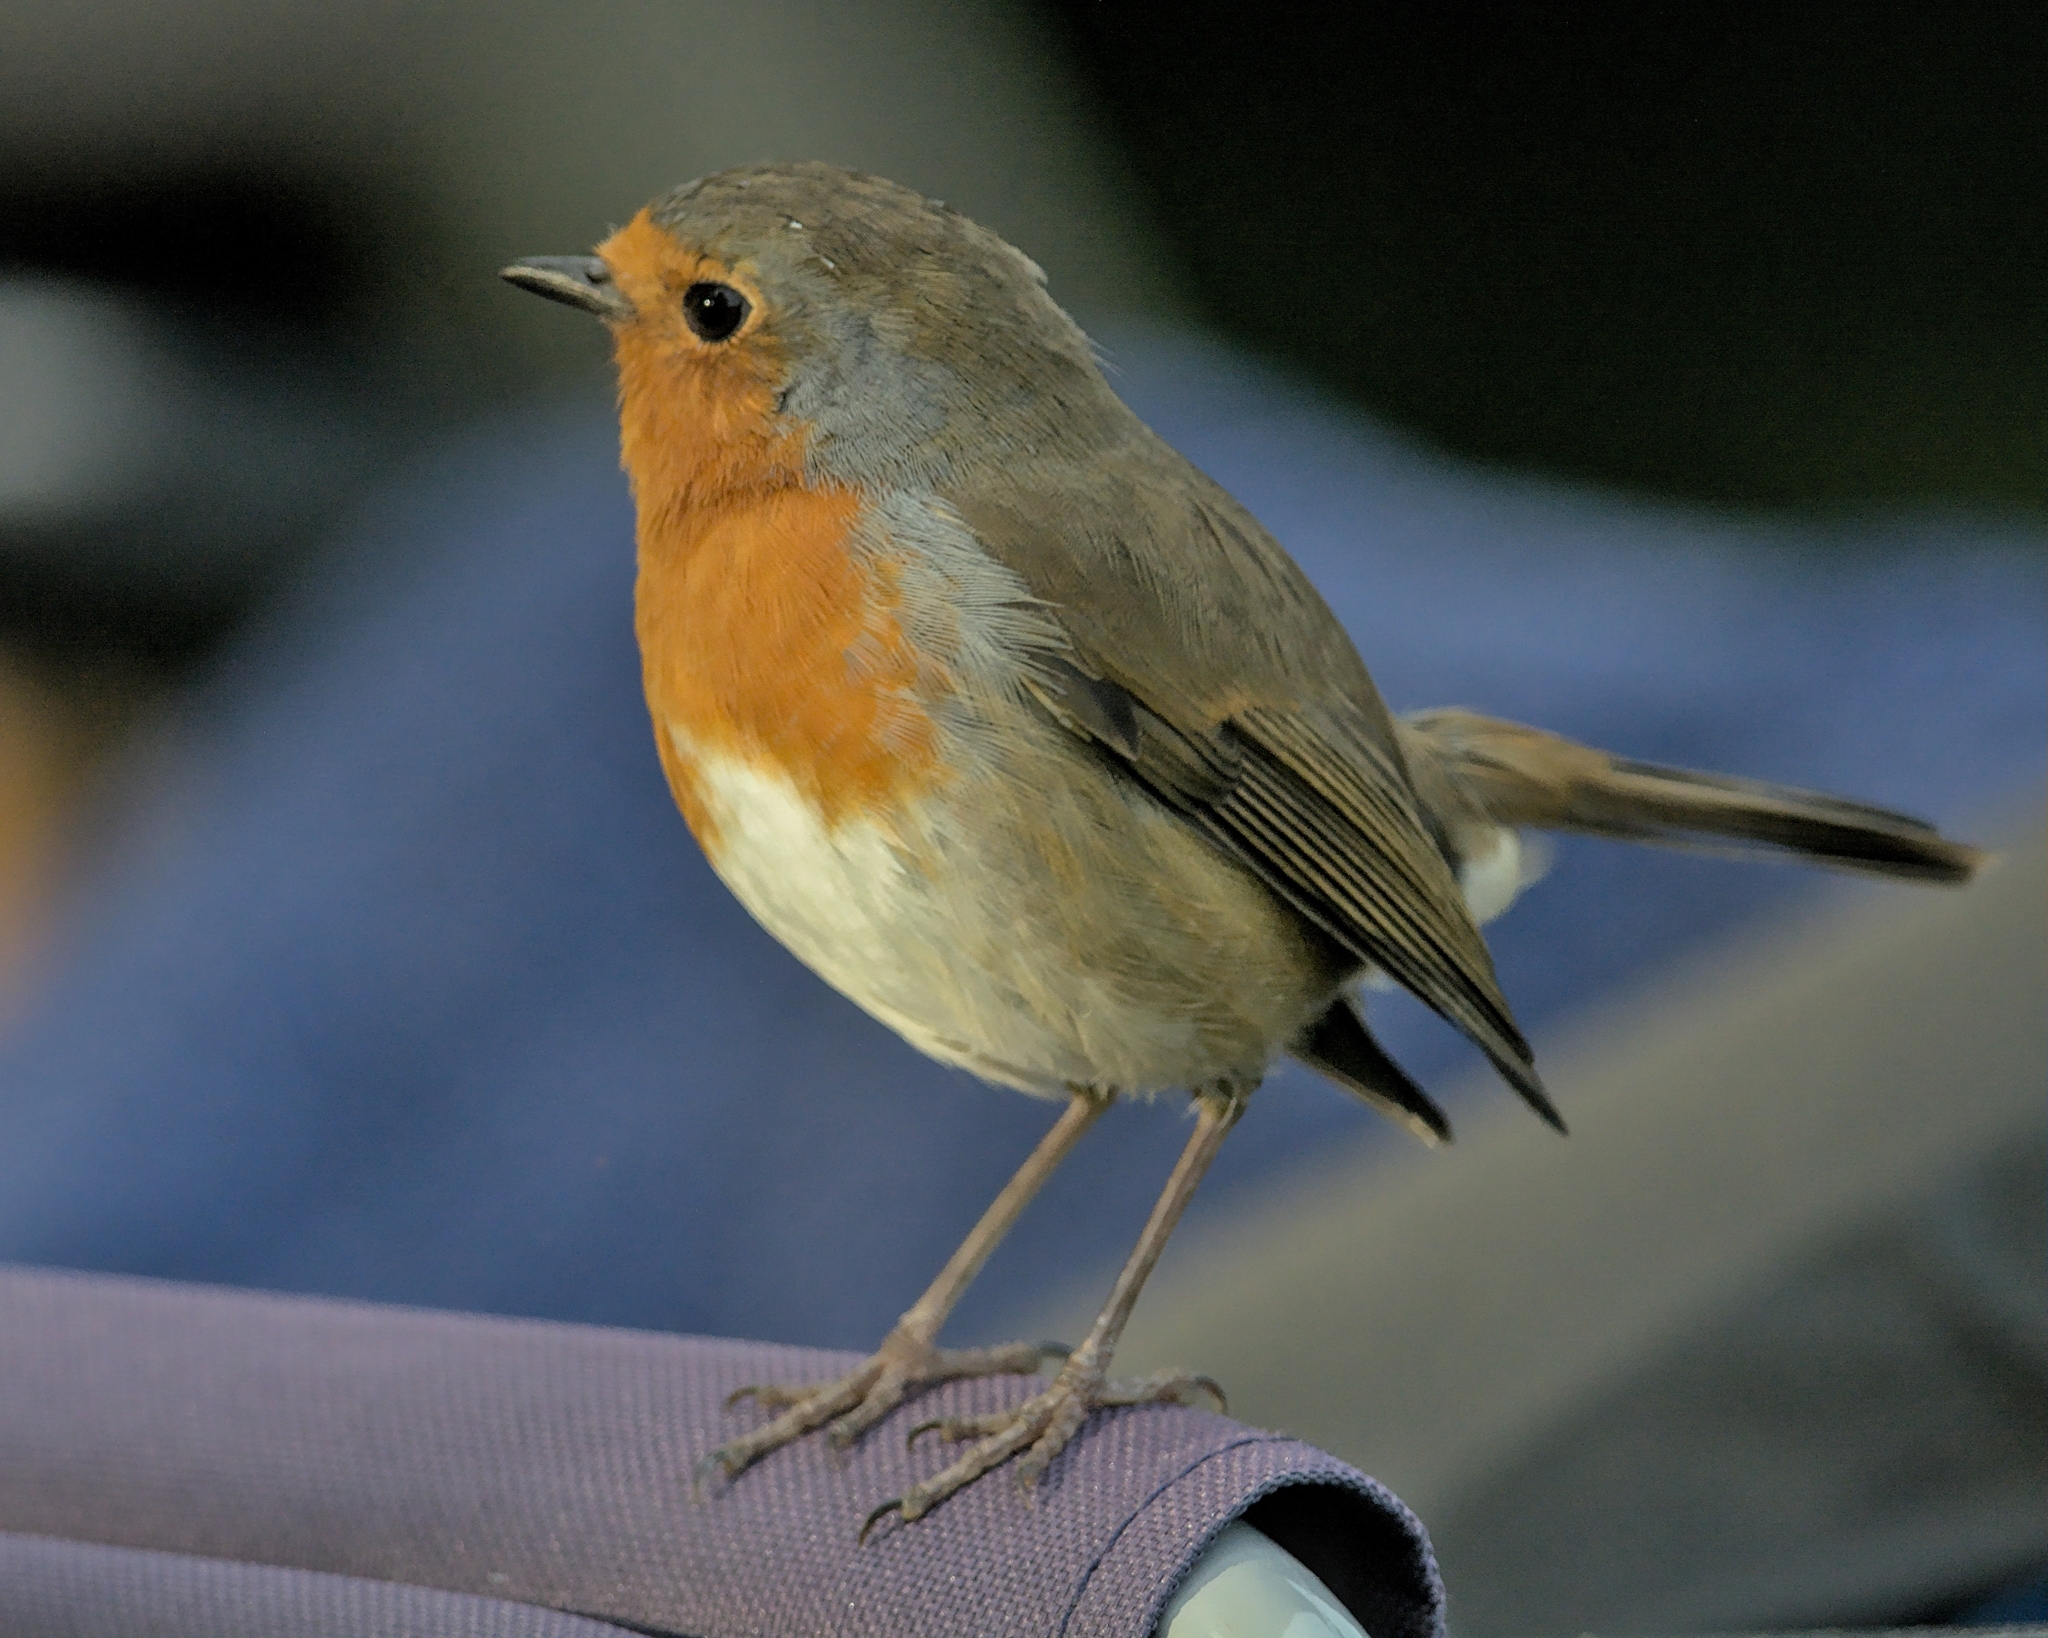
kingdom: Animalia
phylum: Chordata
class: Aves
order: Passeriformes
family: Muscicapidae
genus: Erithacus
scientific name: Erithacus rubecula
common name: European robin
